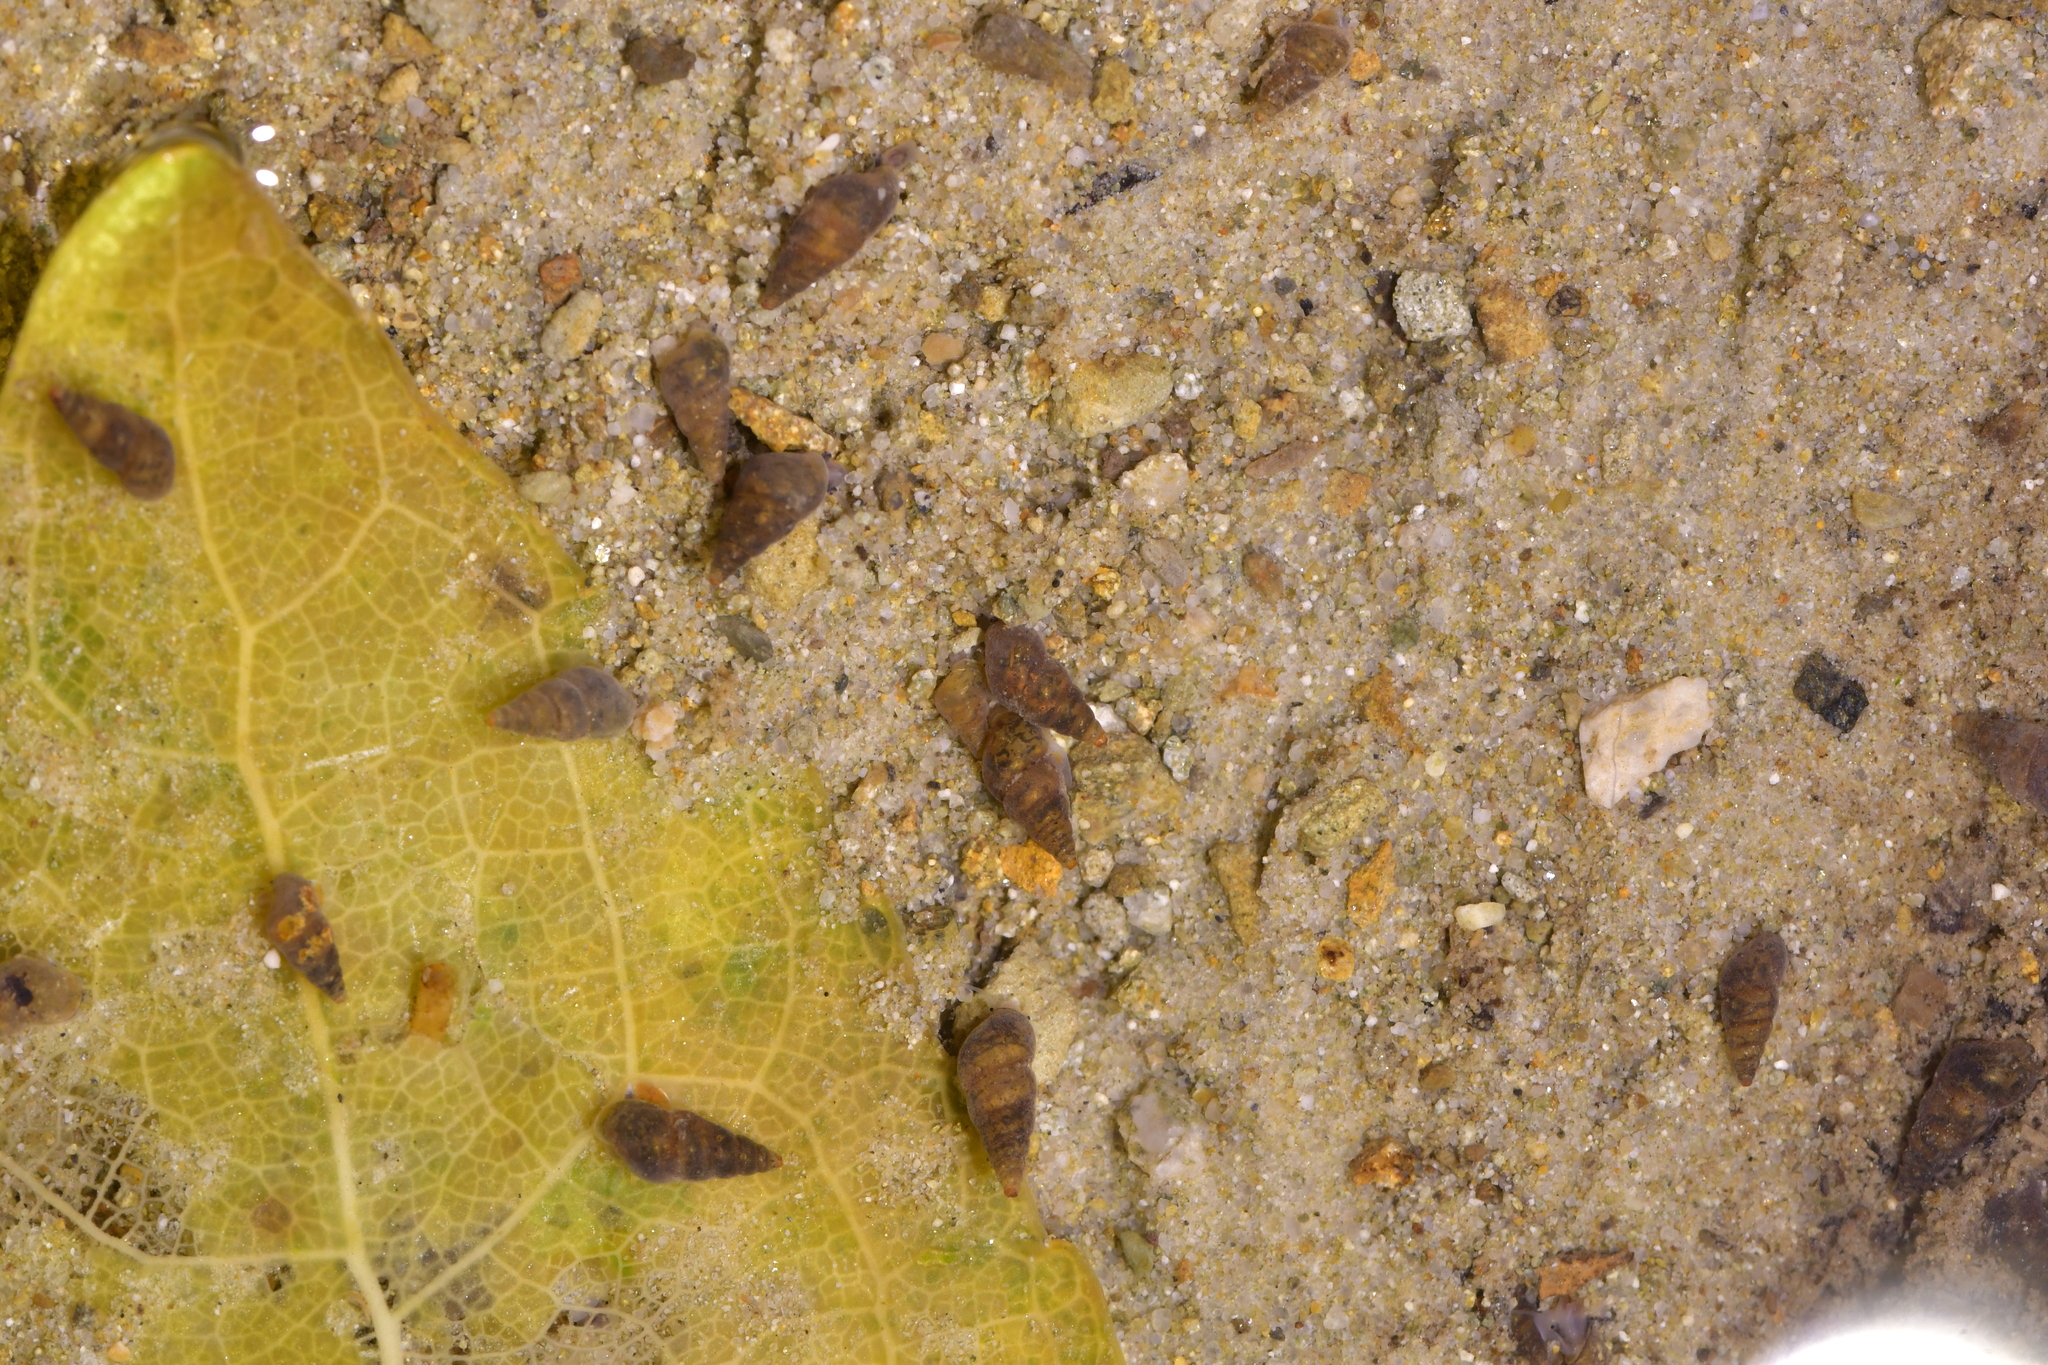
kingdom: Animalia
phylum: Mollusca
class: Gastropoda
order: Littorinimorpha
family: Tateidae
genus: Potamopyrgus
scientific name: Potamopyrgus antipodarum
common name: Jenkins' spire snail
